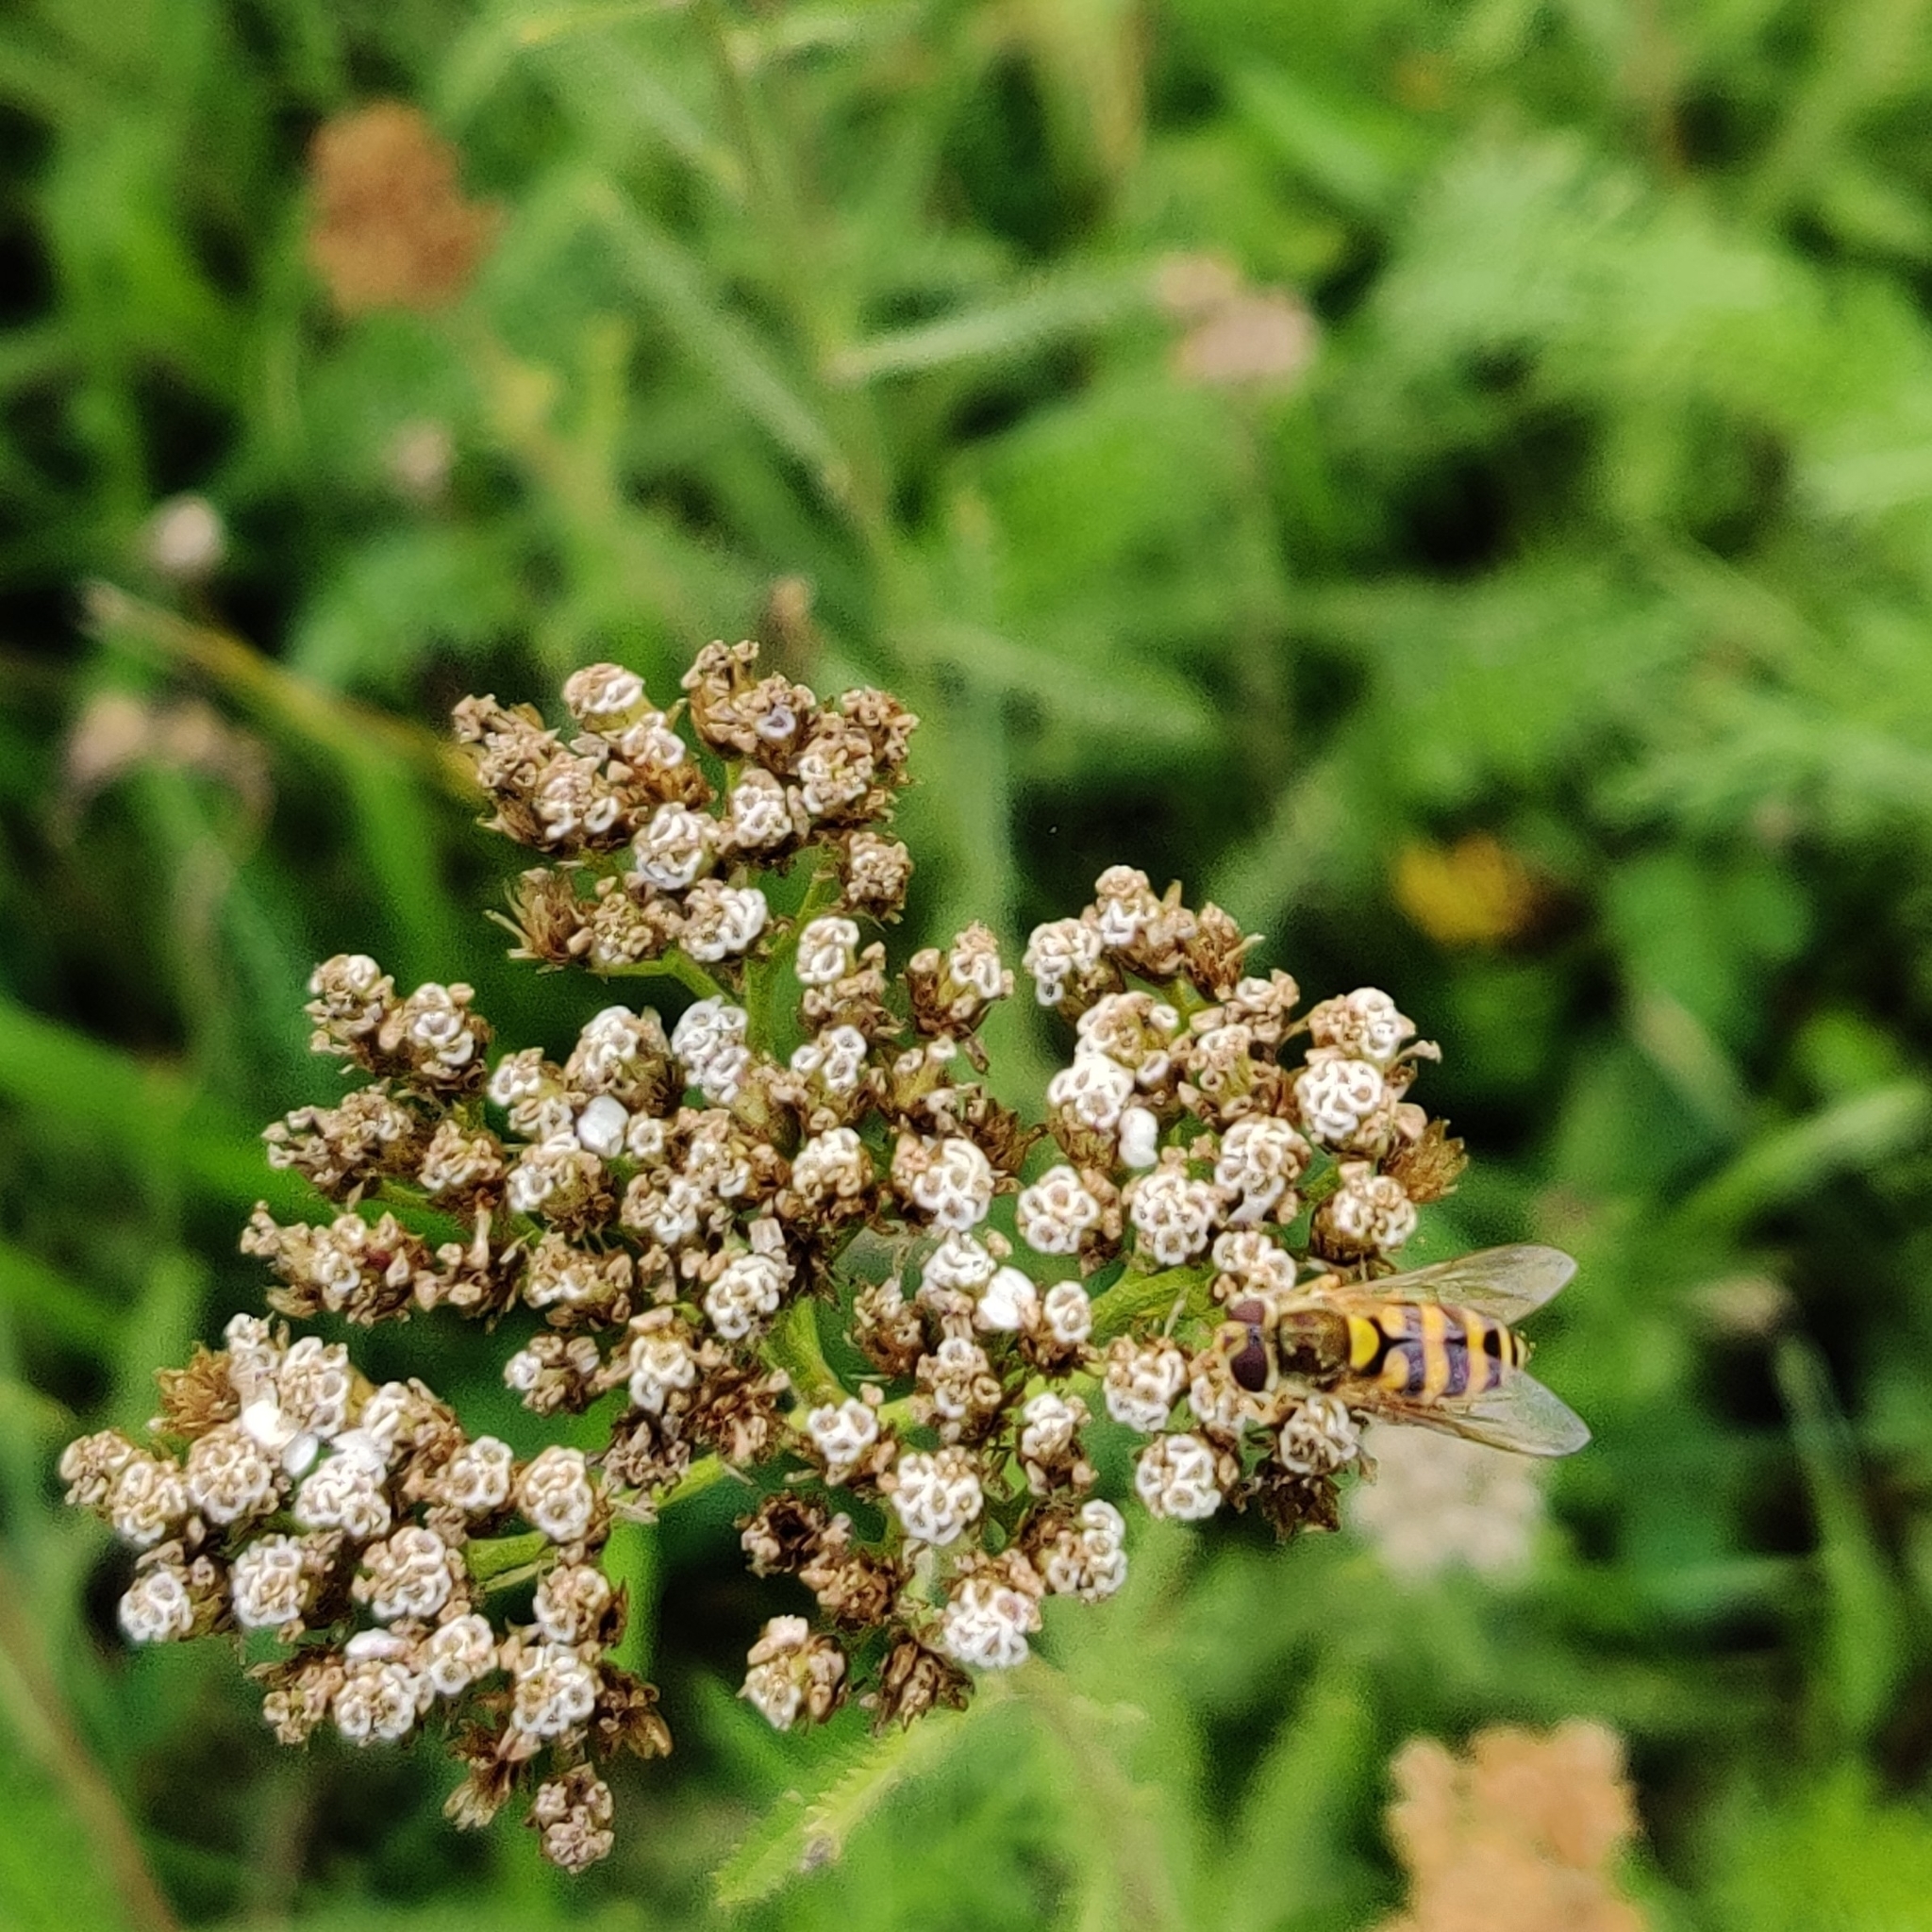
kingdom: Animalia
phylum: Arthropoda
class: Insecta
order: Diptera
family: Syrphidae
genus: Syrphus
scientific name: Syrphus
